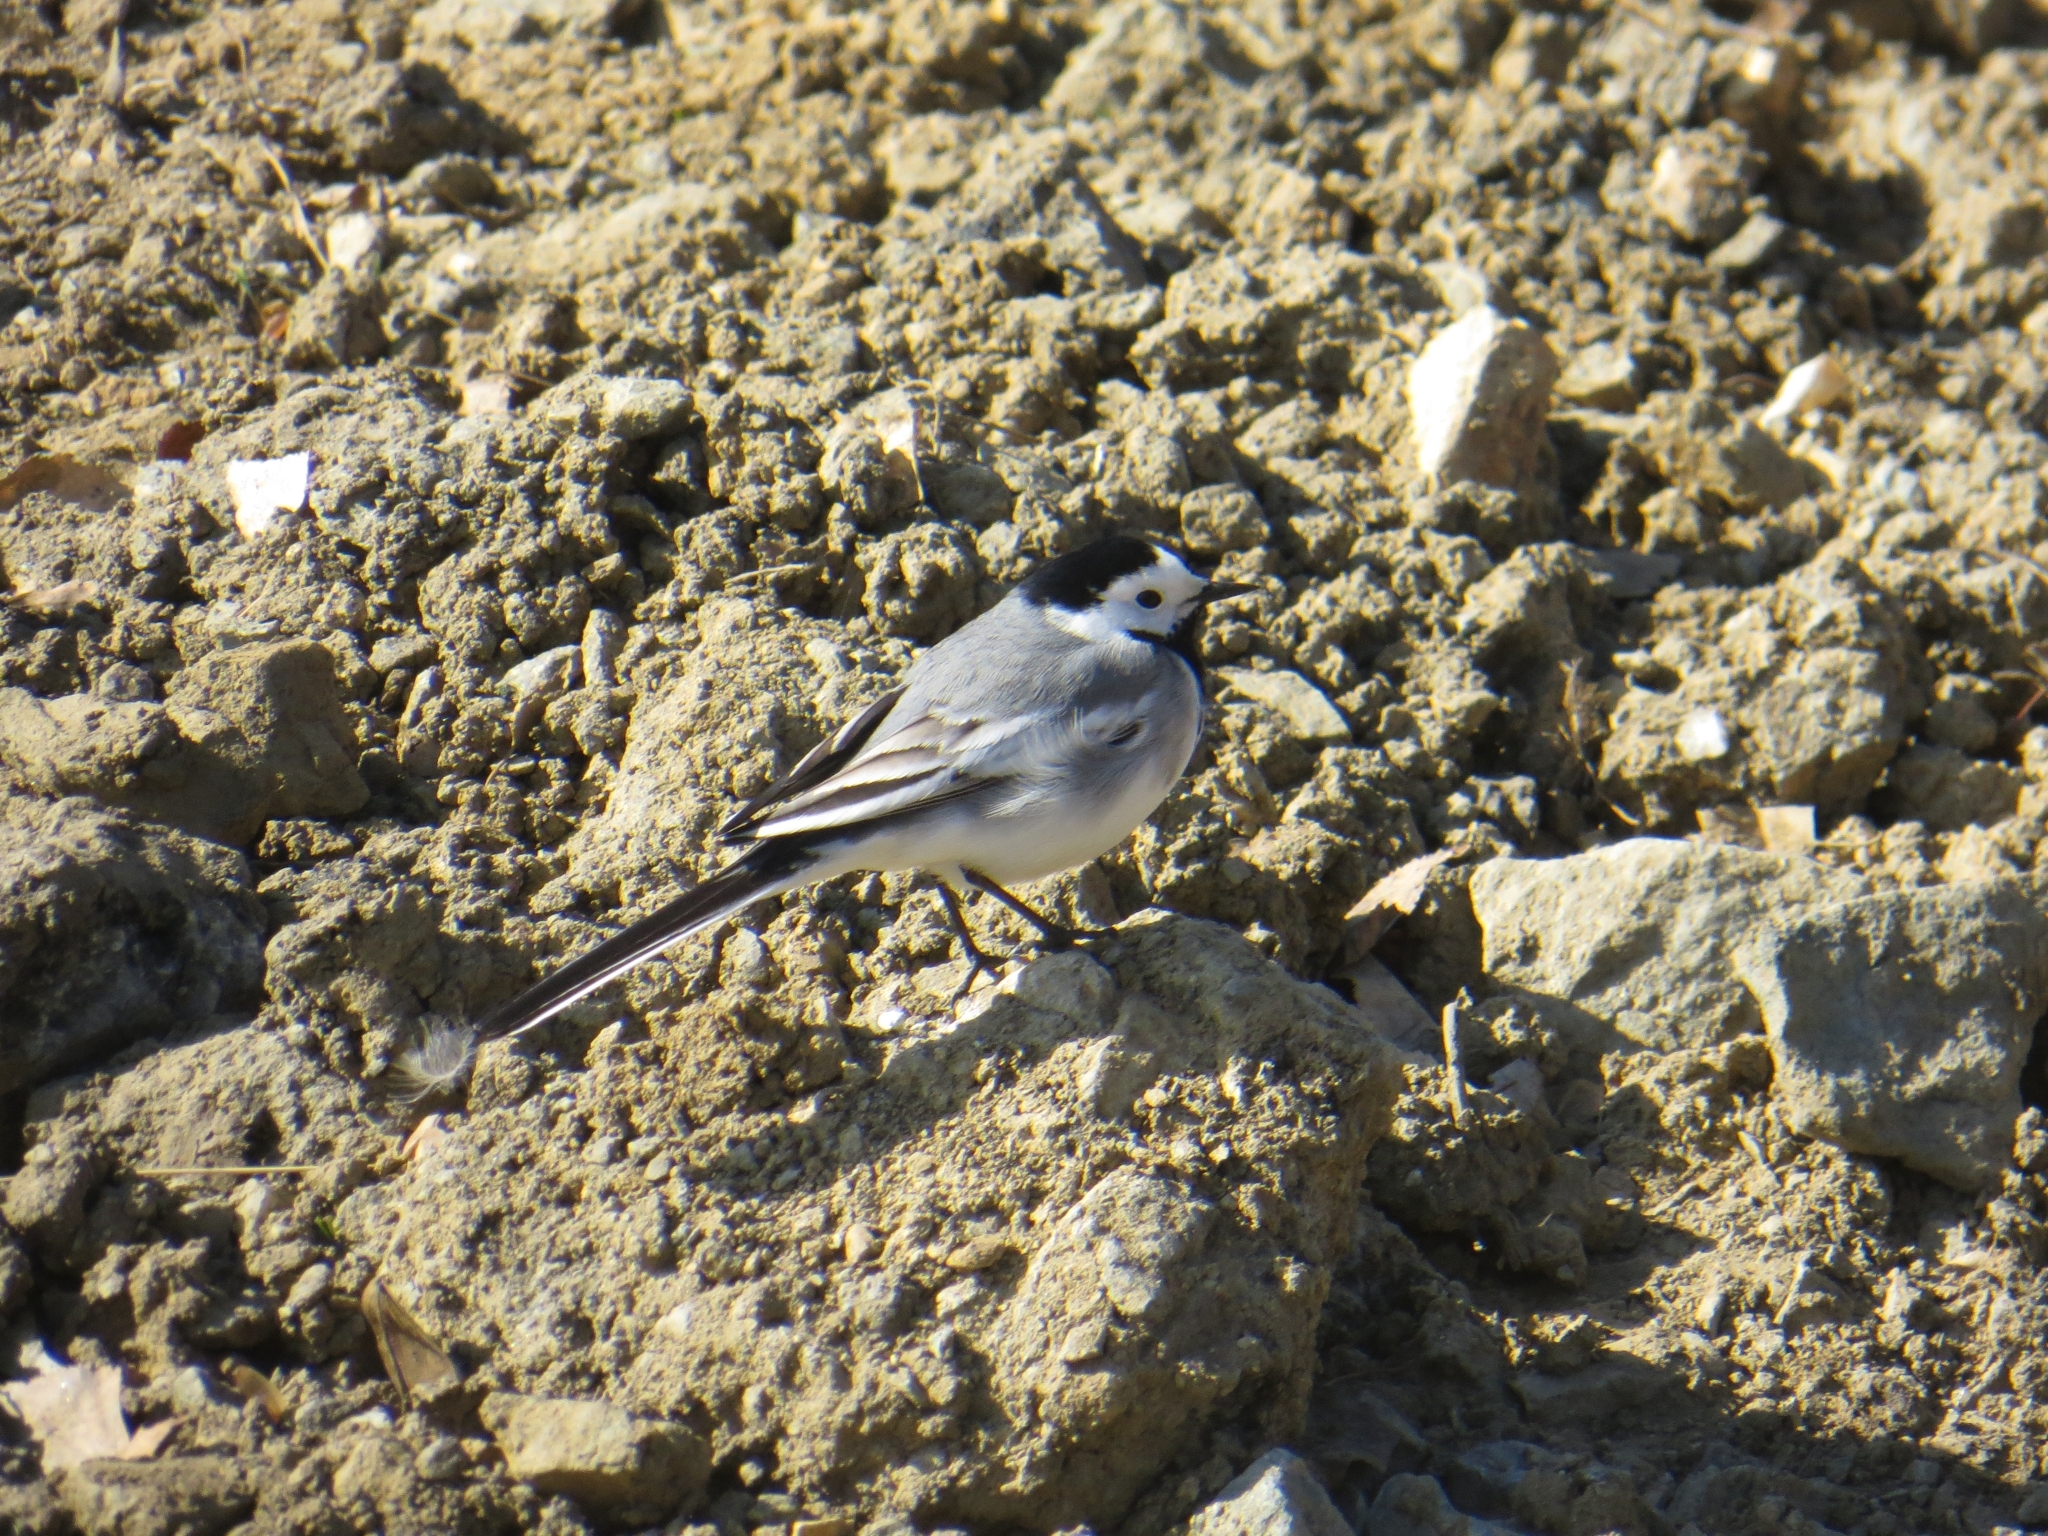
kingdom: Animalia
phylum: Chordata
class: Aves
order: Passeriformes
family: Motacillidae
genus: Motacilla
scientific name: Motacilla alba
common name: White wagtail
